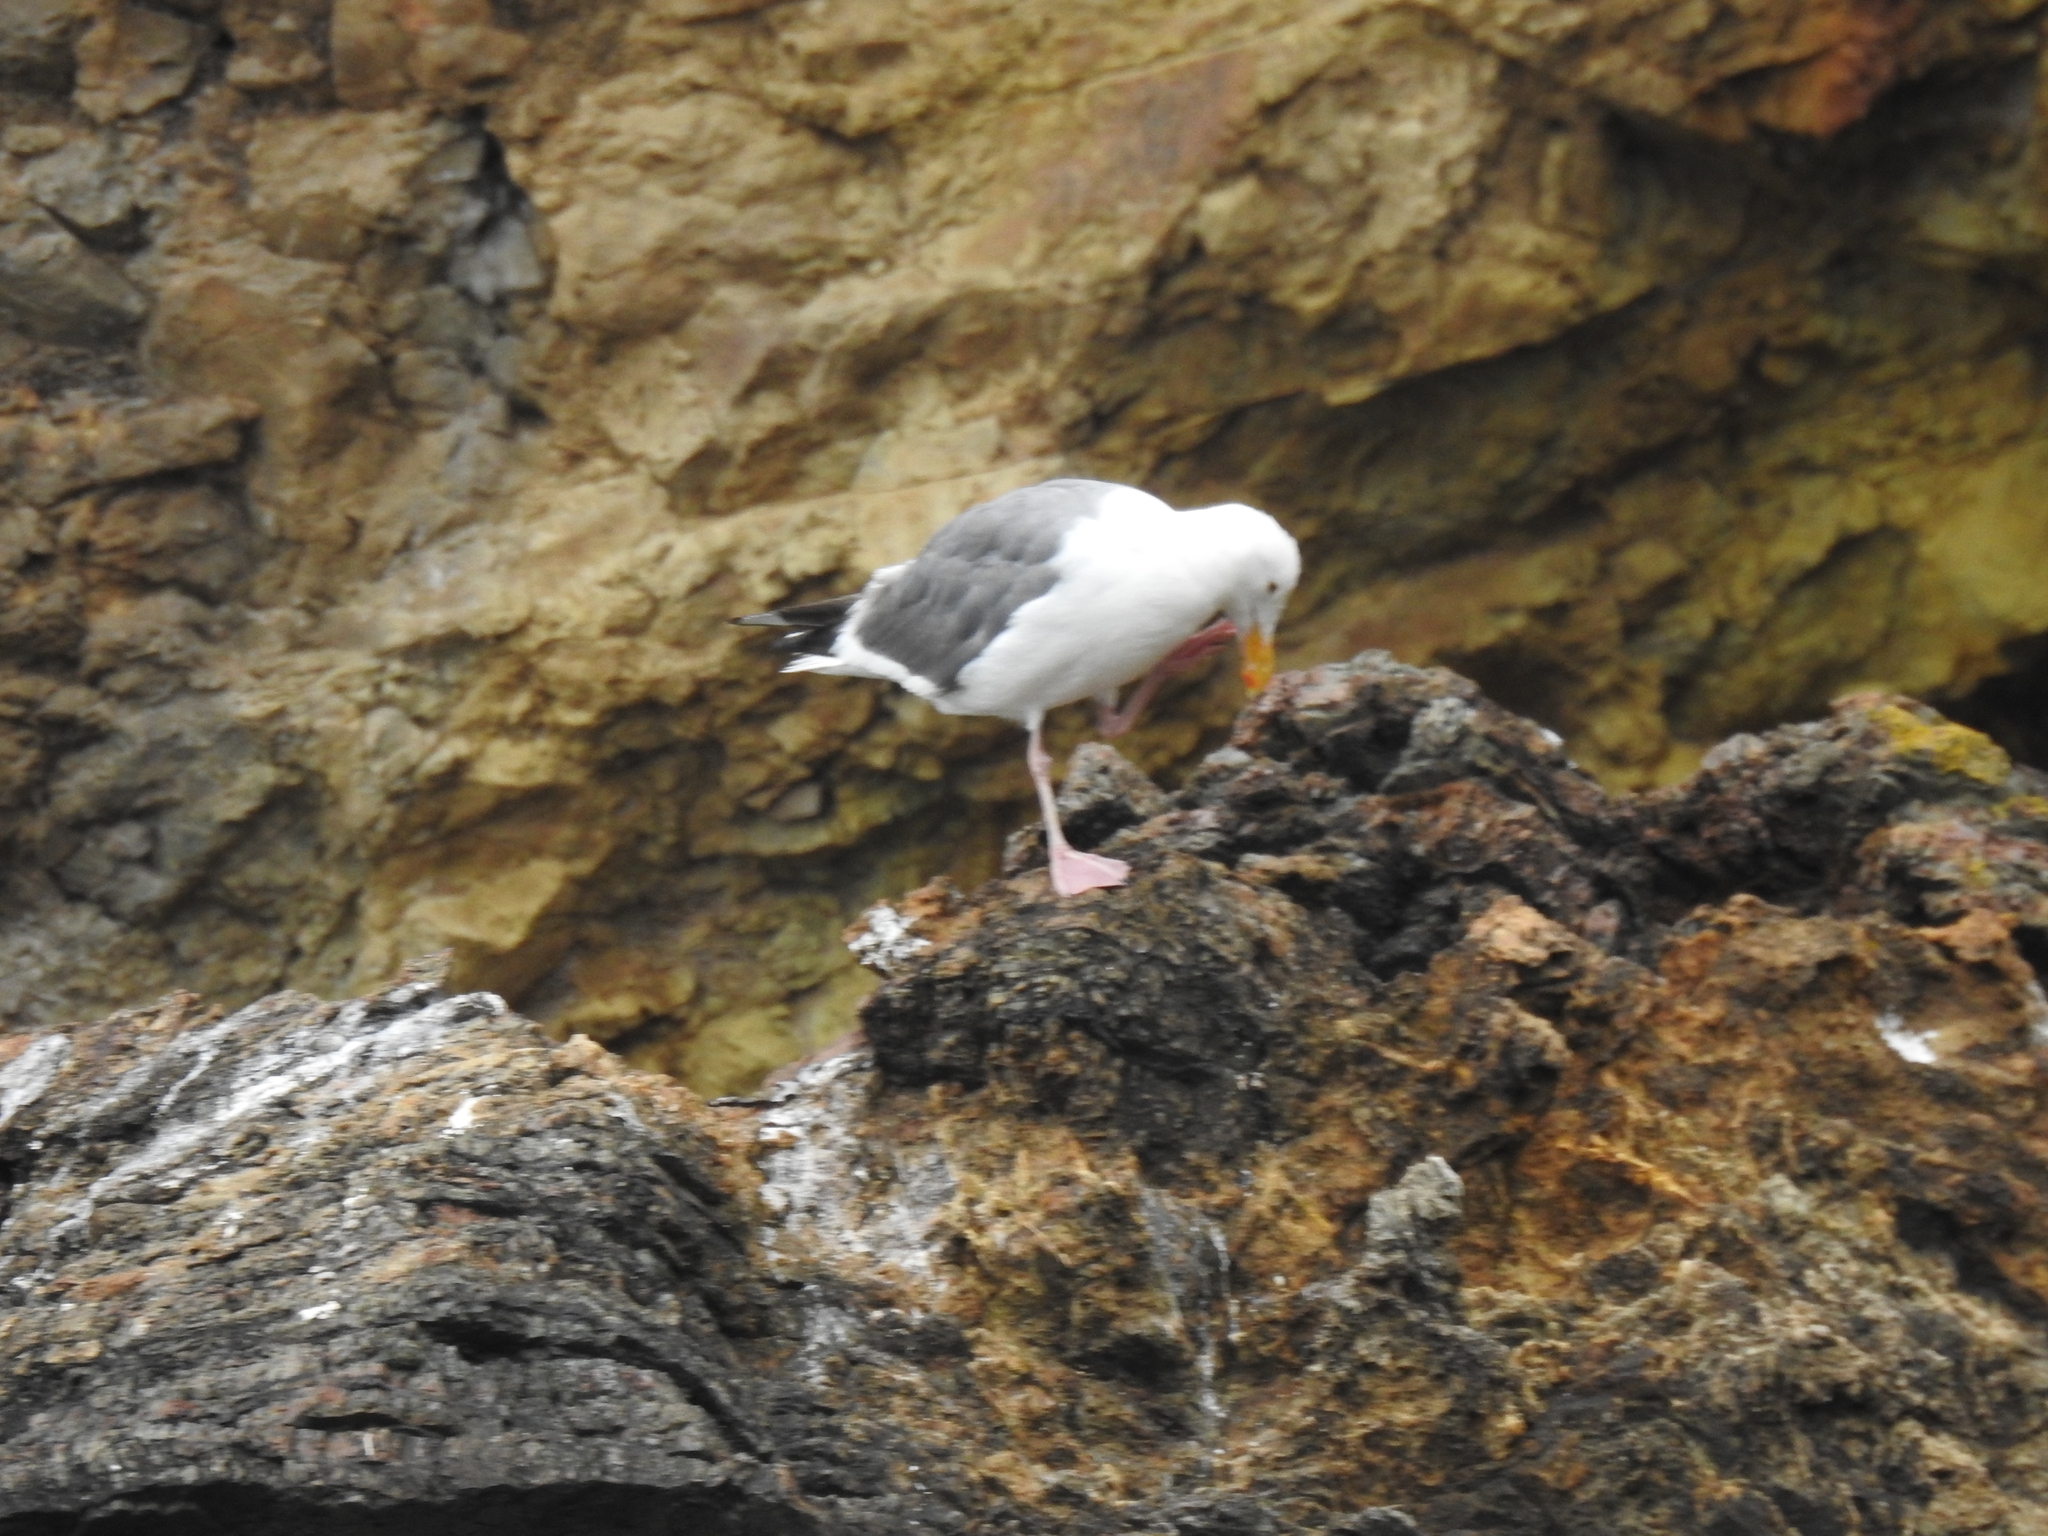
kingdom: Animalia
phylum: Chordata
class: Aves
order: Charadriiformes
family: Laridae
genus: Larus
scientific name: Larus occidentalis
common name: Western gull
